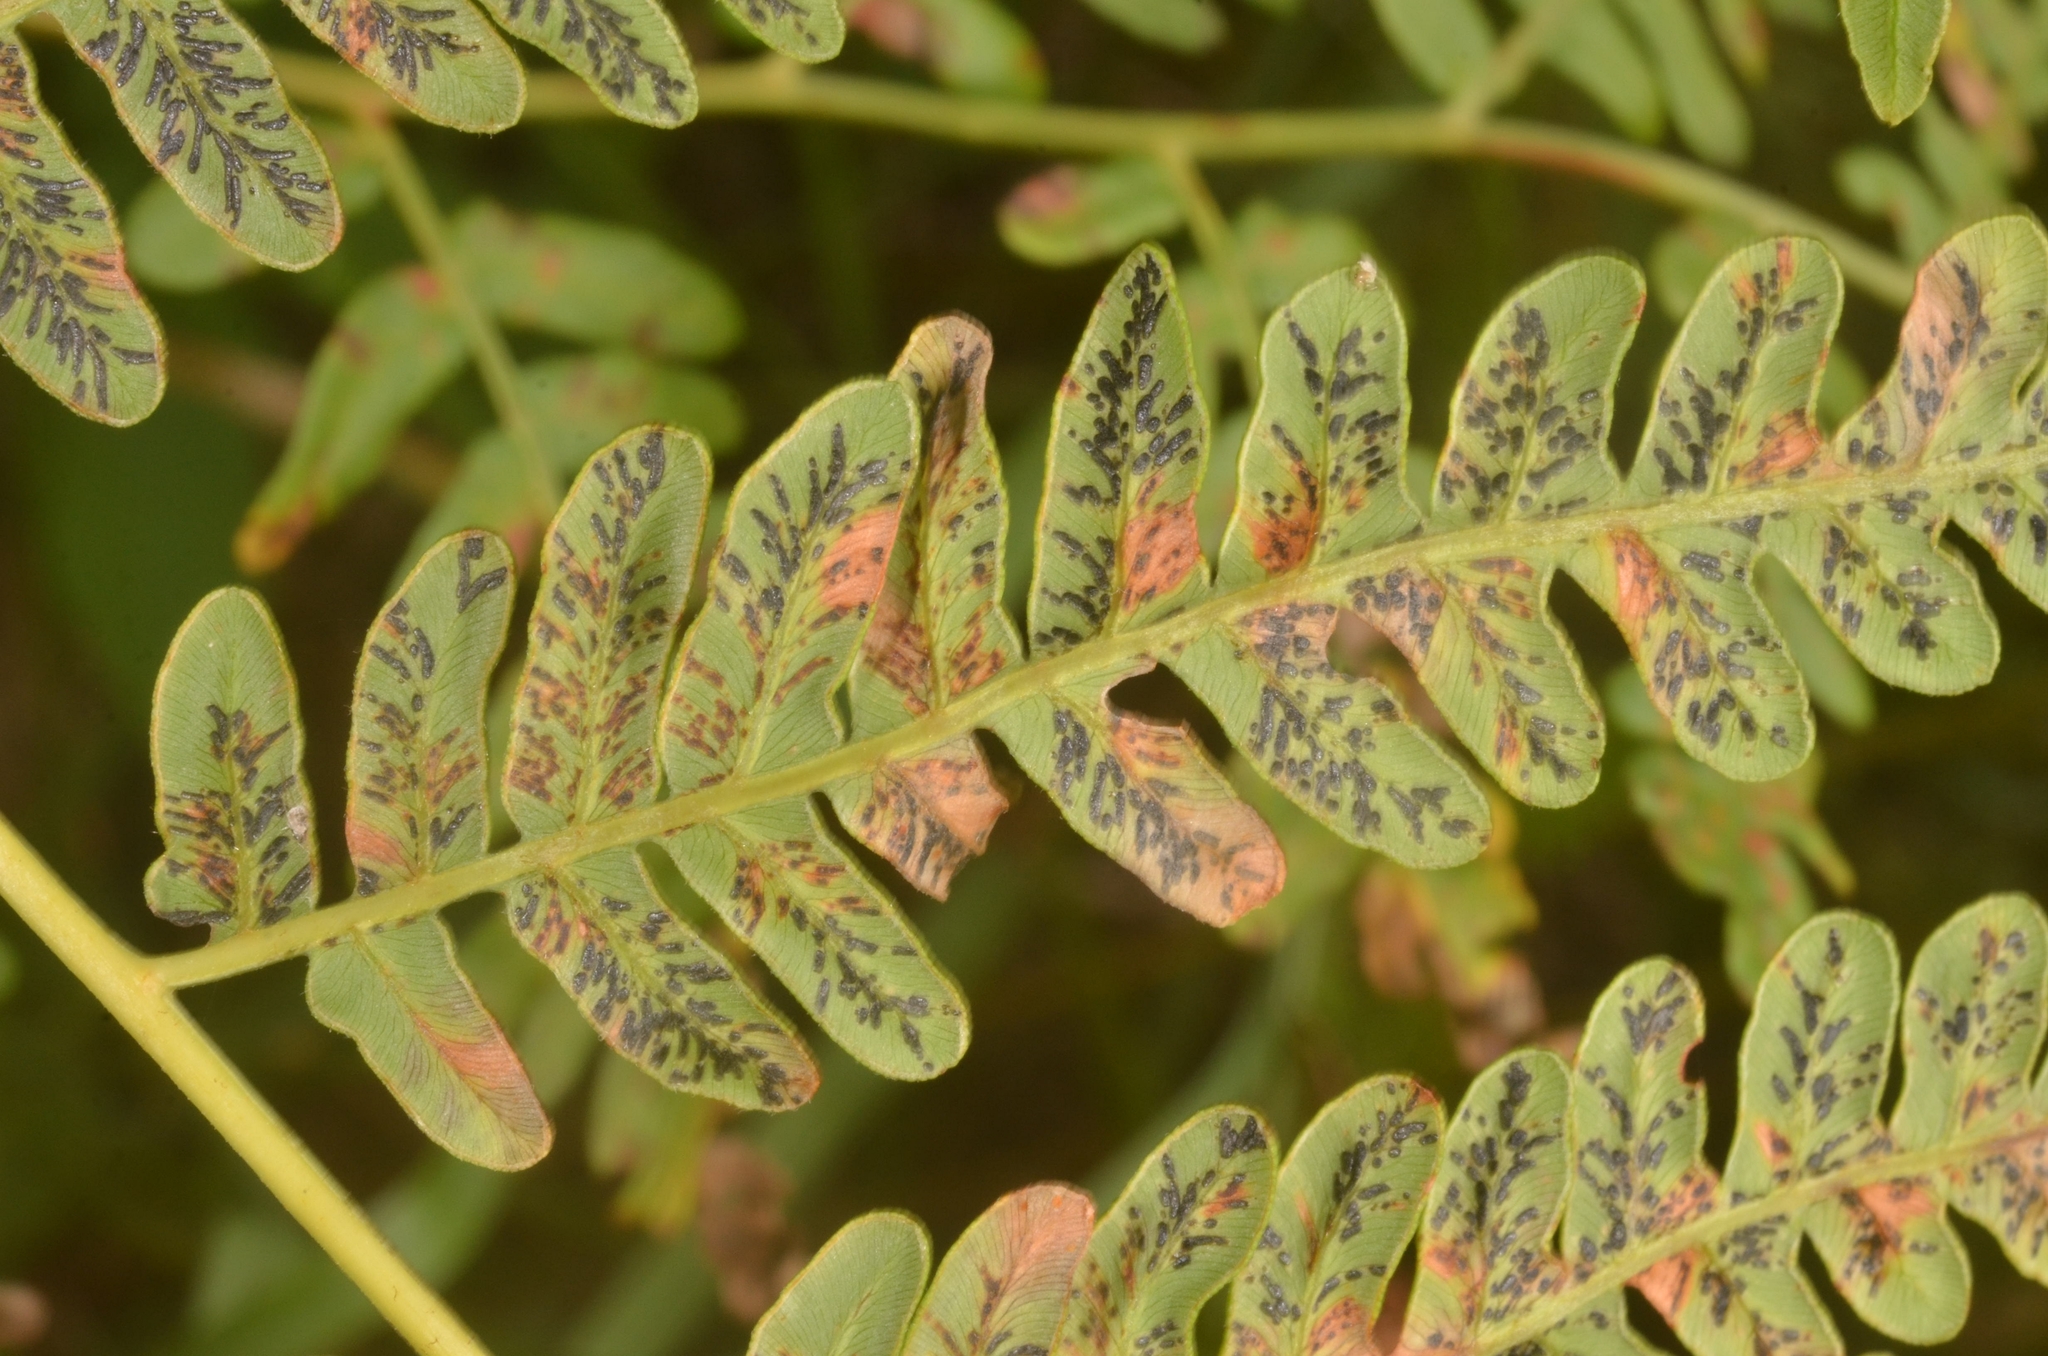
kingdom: Fungi
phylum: Ascomycota
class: Sordariomycetes
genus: Cryptomycina
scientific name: Cryptomycina pteridis
